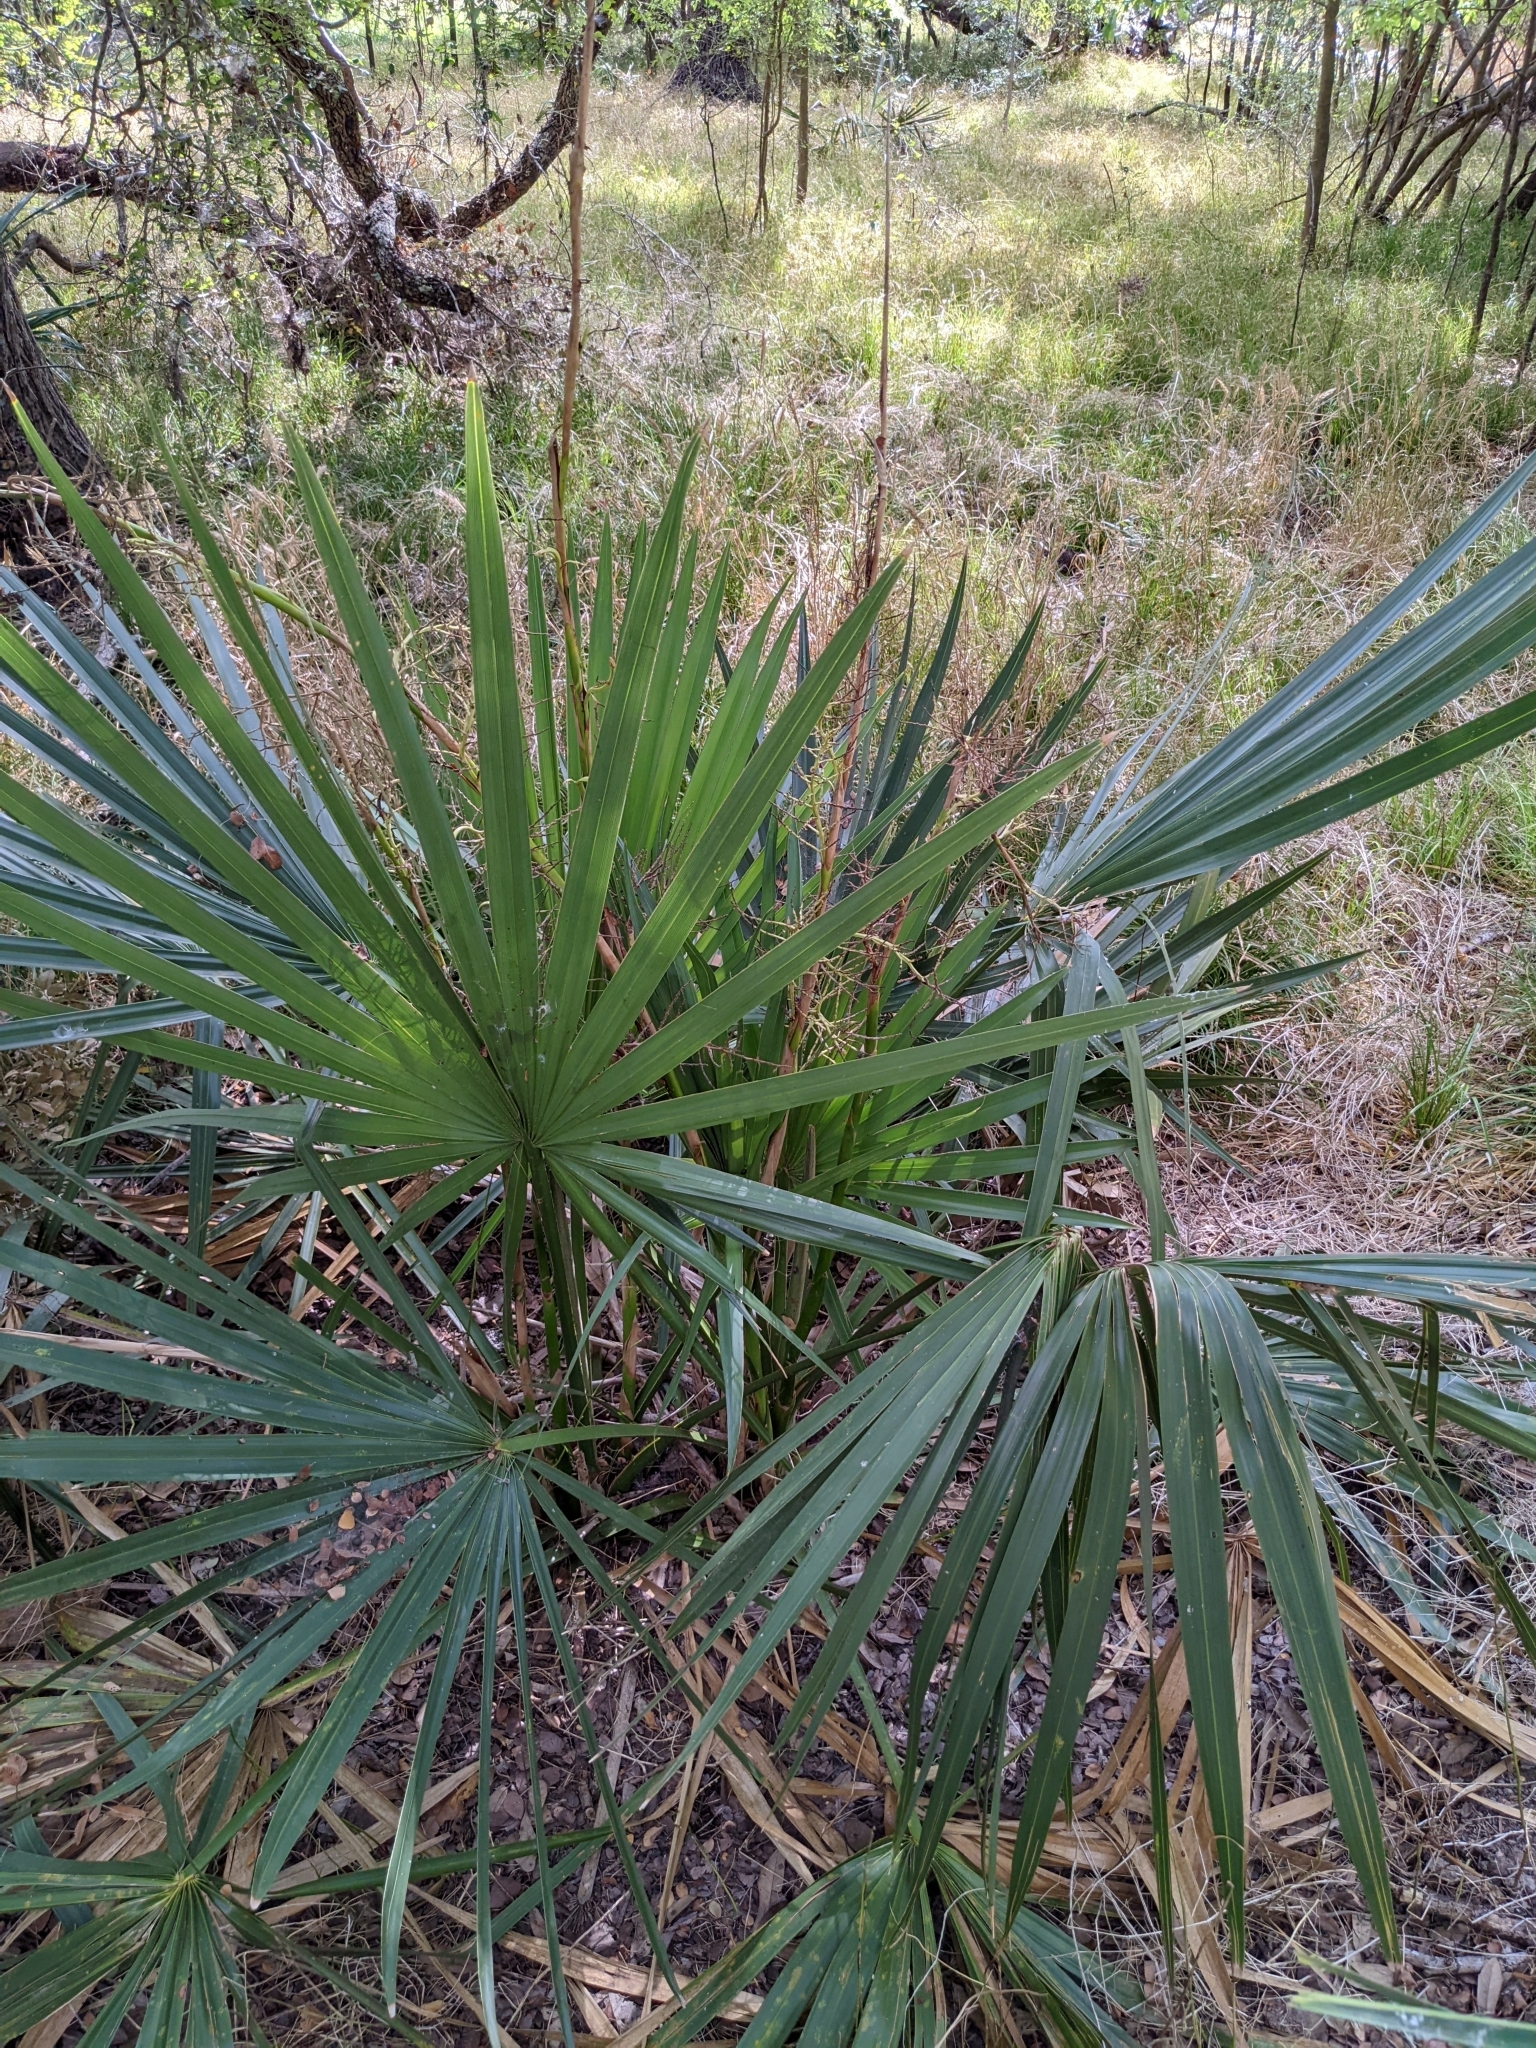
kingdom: Plantae
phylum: Tracheophyta
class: Liliopsida
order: Arecales
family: Arecaceae
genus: Sabal
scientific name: Sabal minor
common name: Dwarf palmetto
